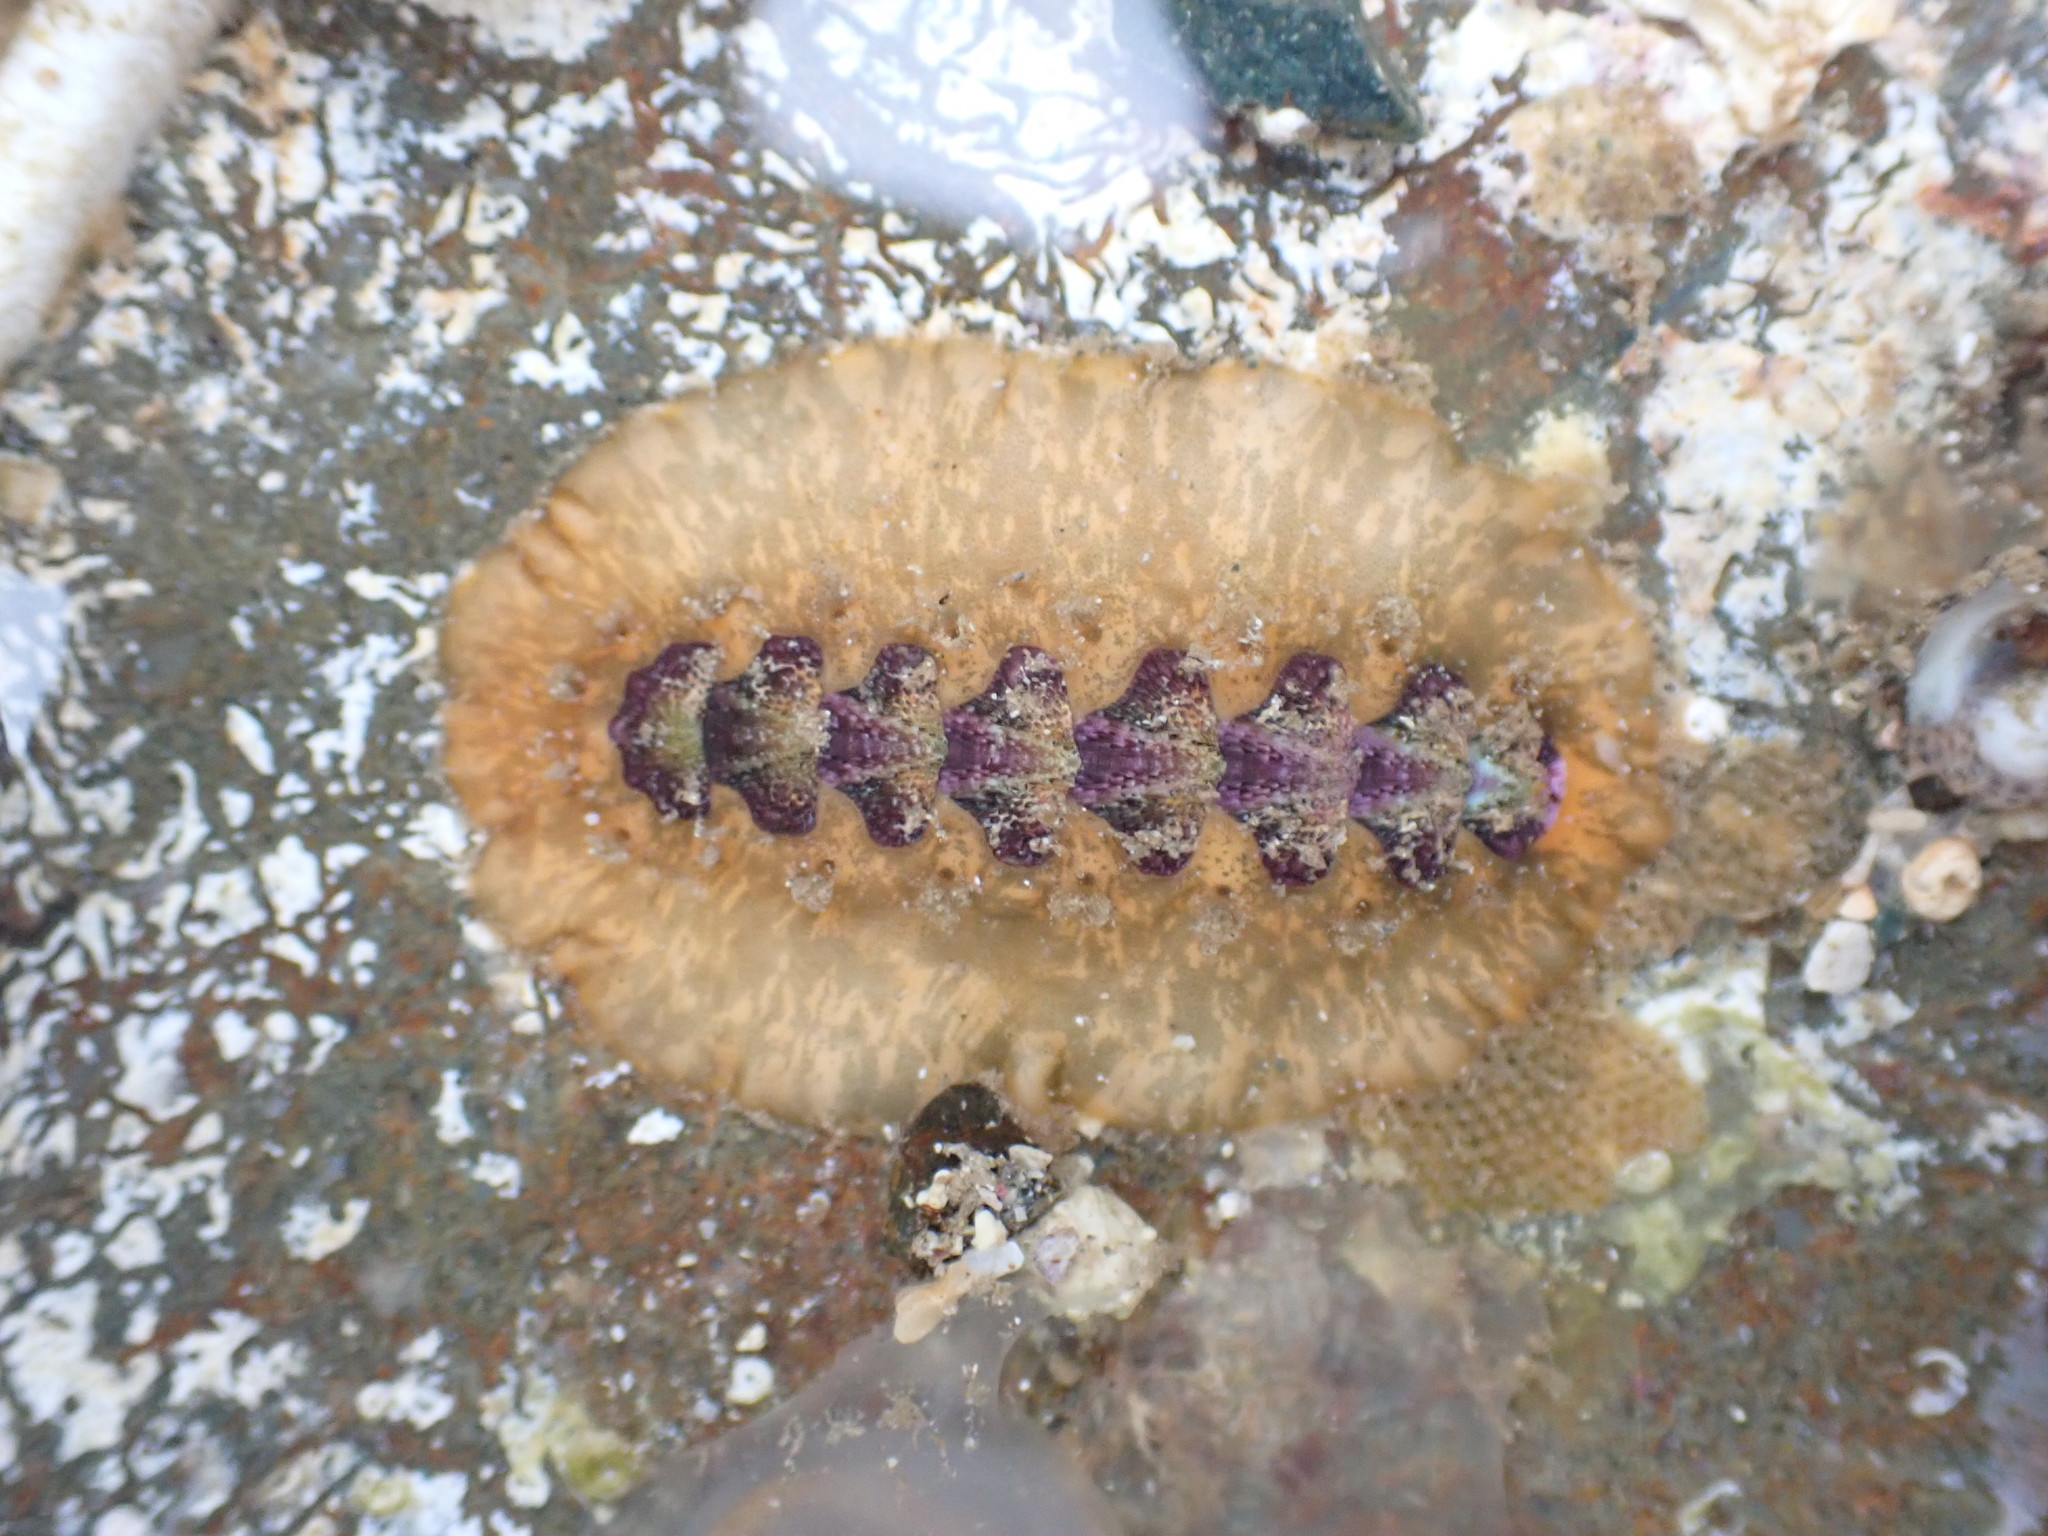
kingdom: Animalia
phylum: Mollusca
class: Polyplacophora
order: Chitonida
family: Acanthochitonidae
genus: Notoplax
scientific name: Notoplax violacea
